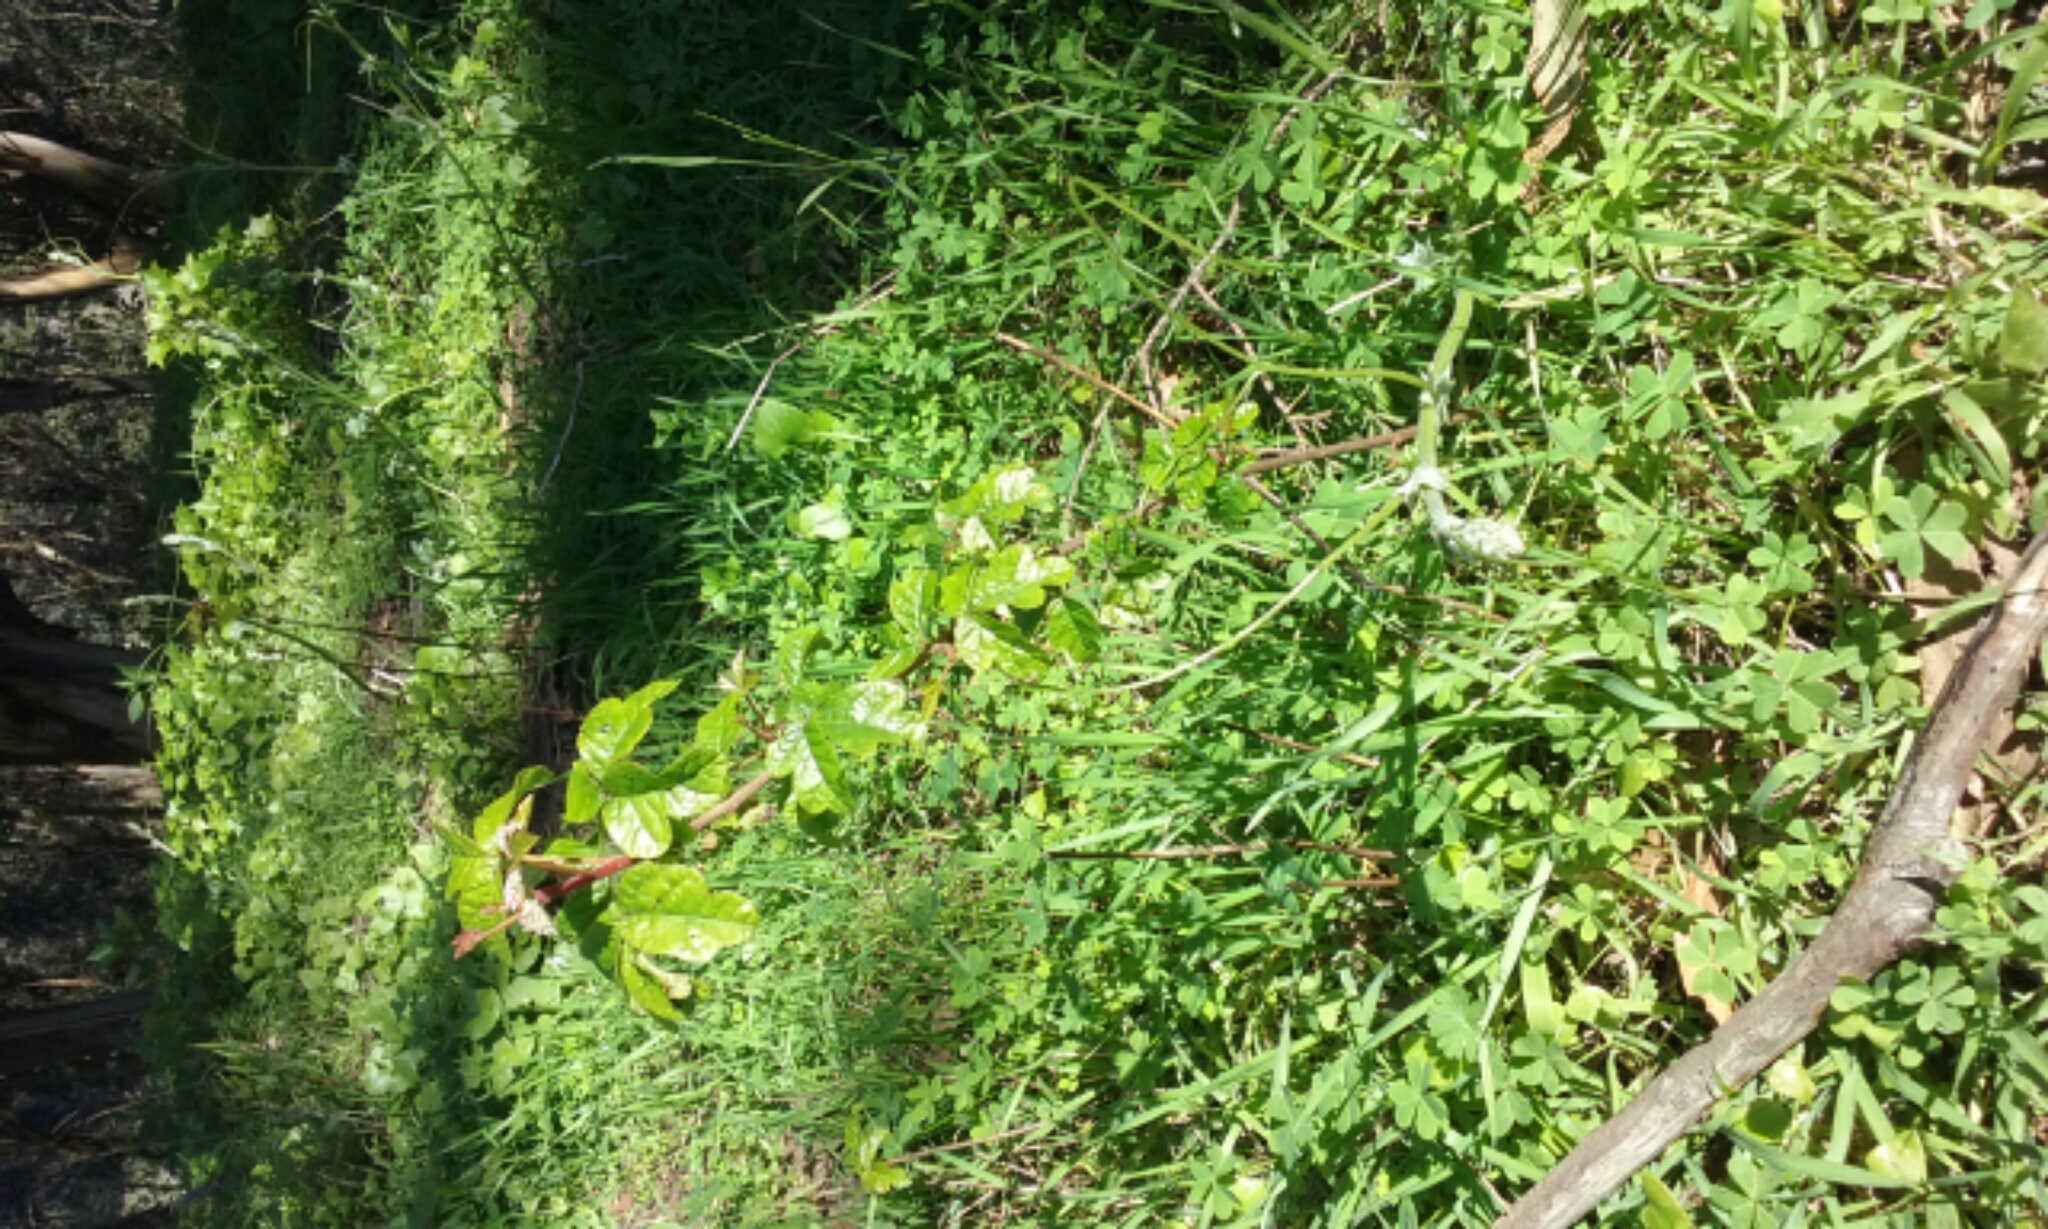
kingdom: Plantae
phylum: Tracheophyta
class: Magnoliopsida
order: Sapindales
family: Anacardiaceae
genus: Toxicodendron
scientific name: Toxicodendron diversilobum
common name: Pacific poison-oak
